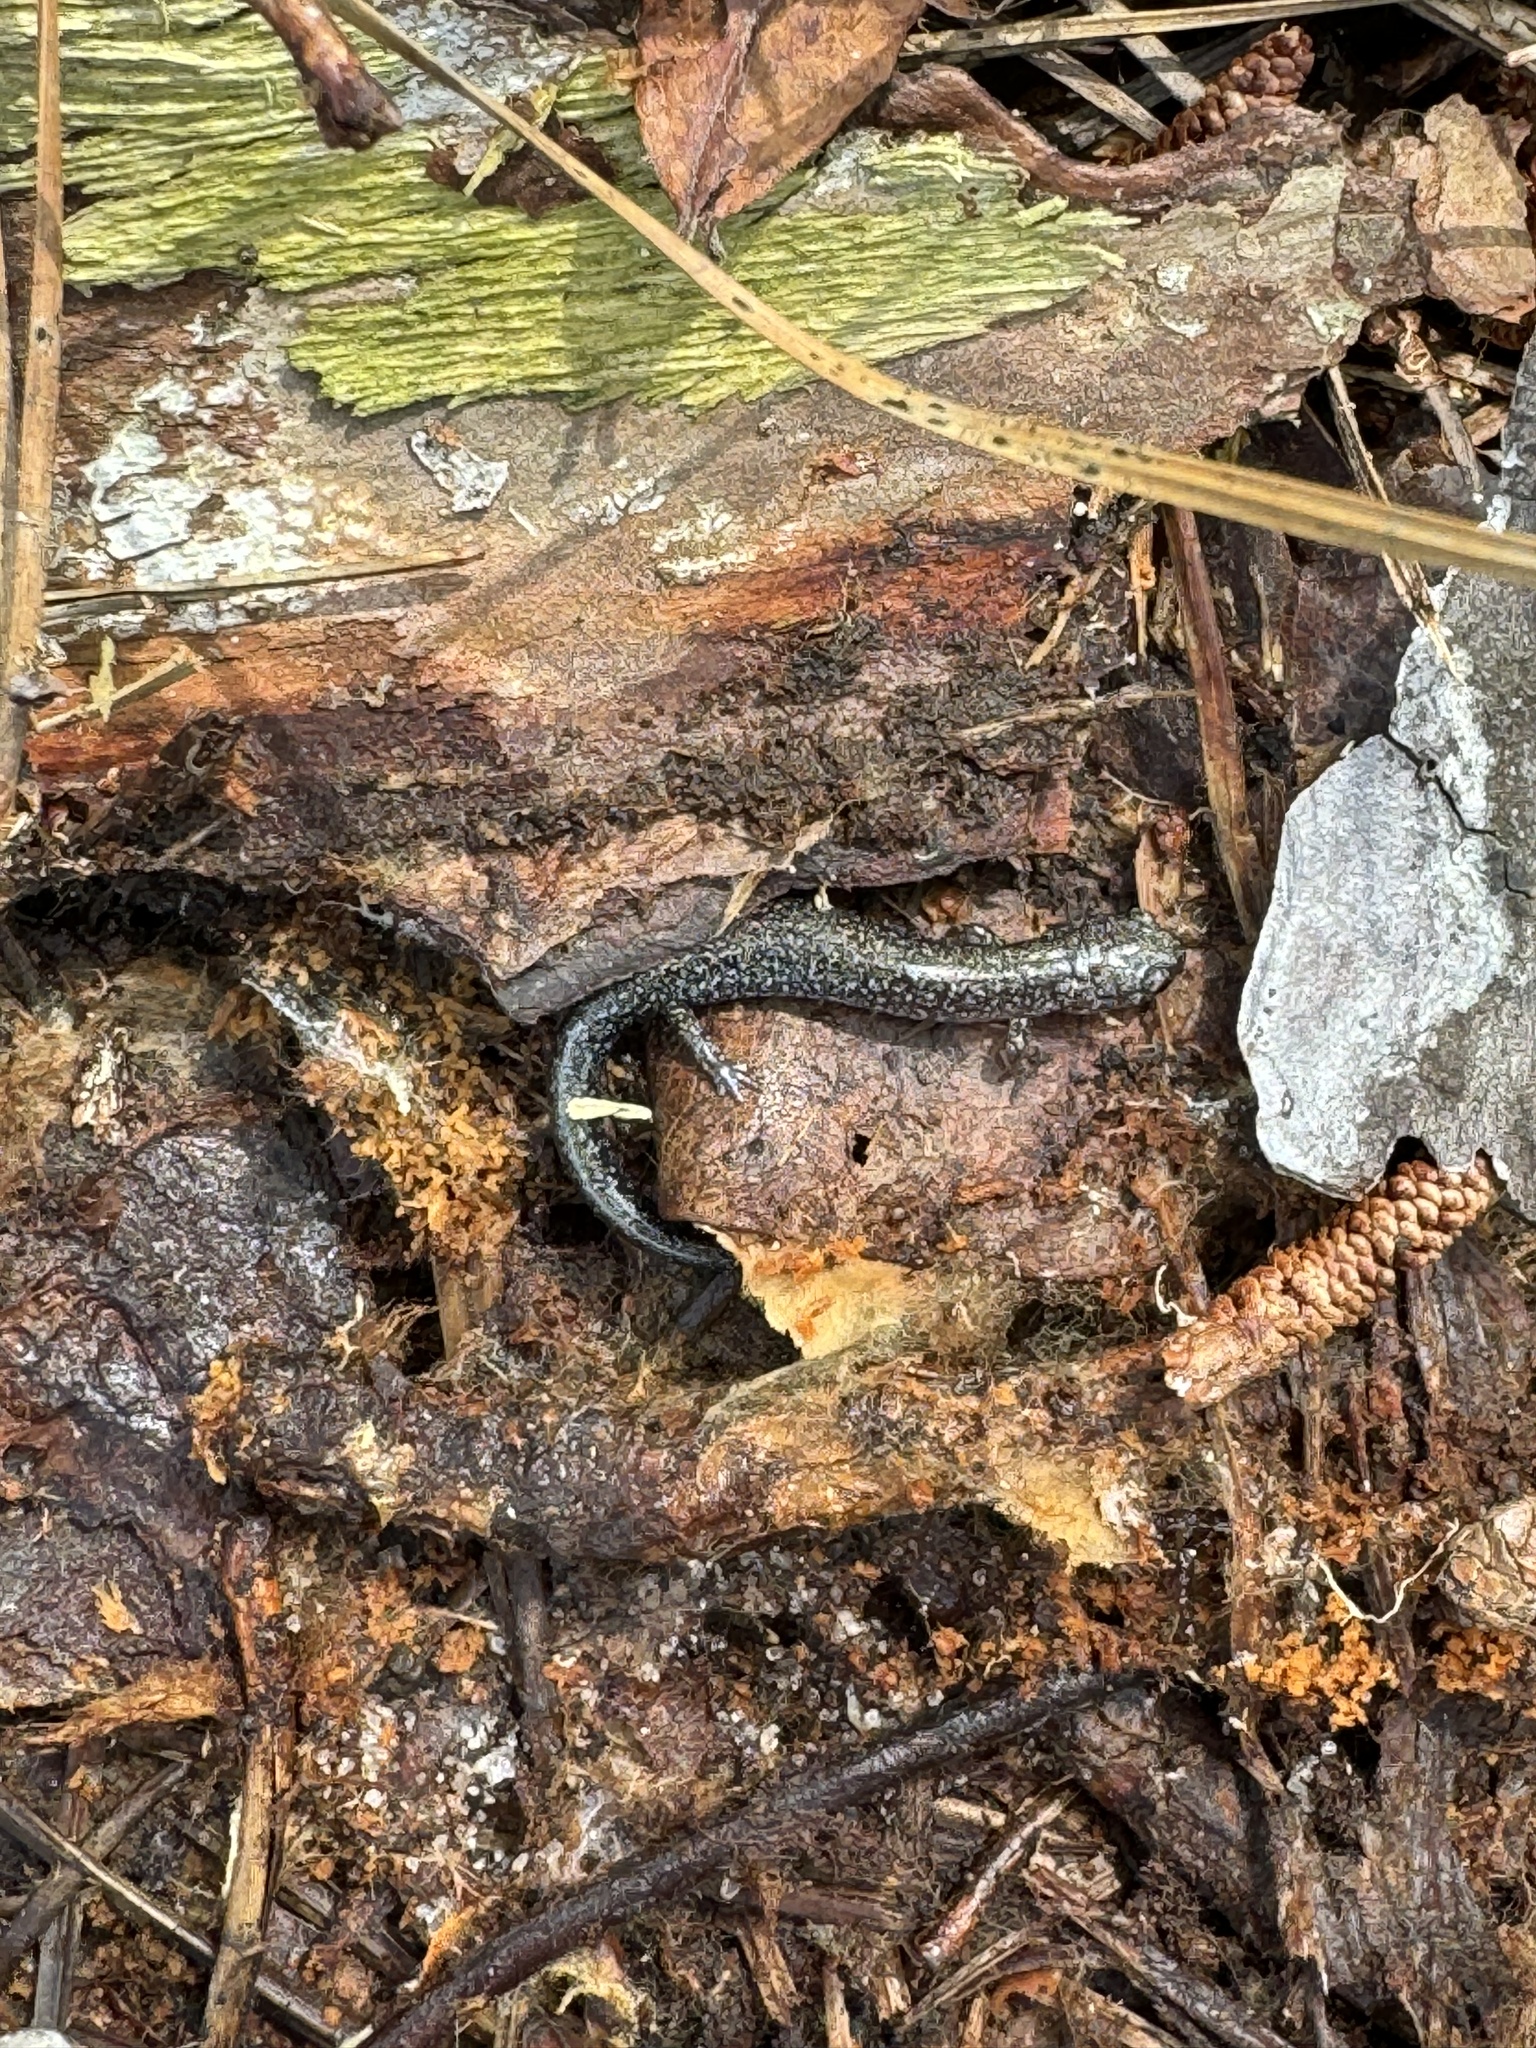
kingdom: Animalia
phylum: Chordata
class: Amphibia
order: Caudata
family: Plethodontidae
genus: Plethodon
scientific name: Plethodon cinereus
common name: Redback salamander
